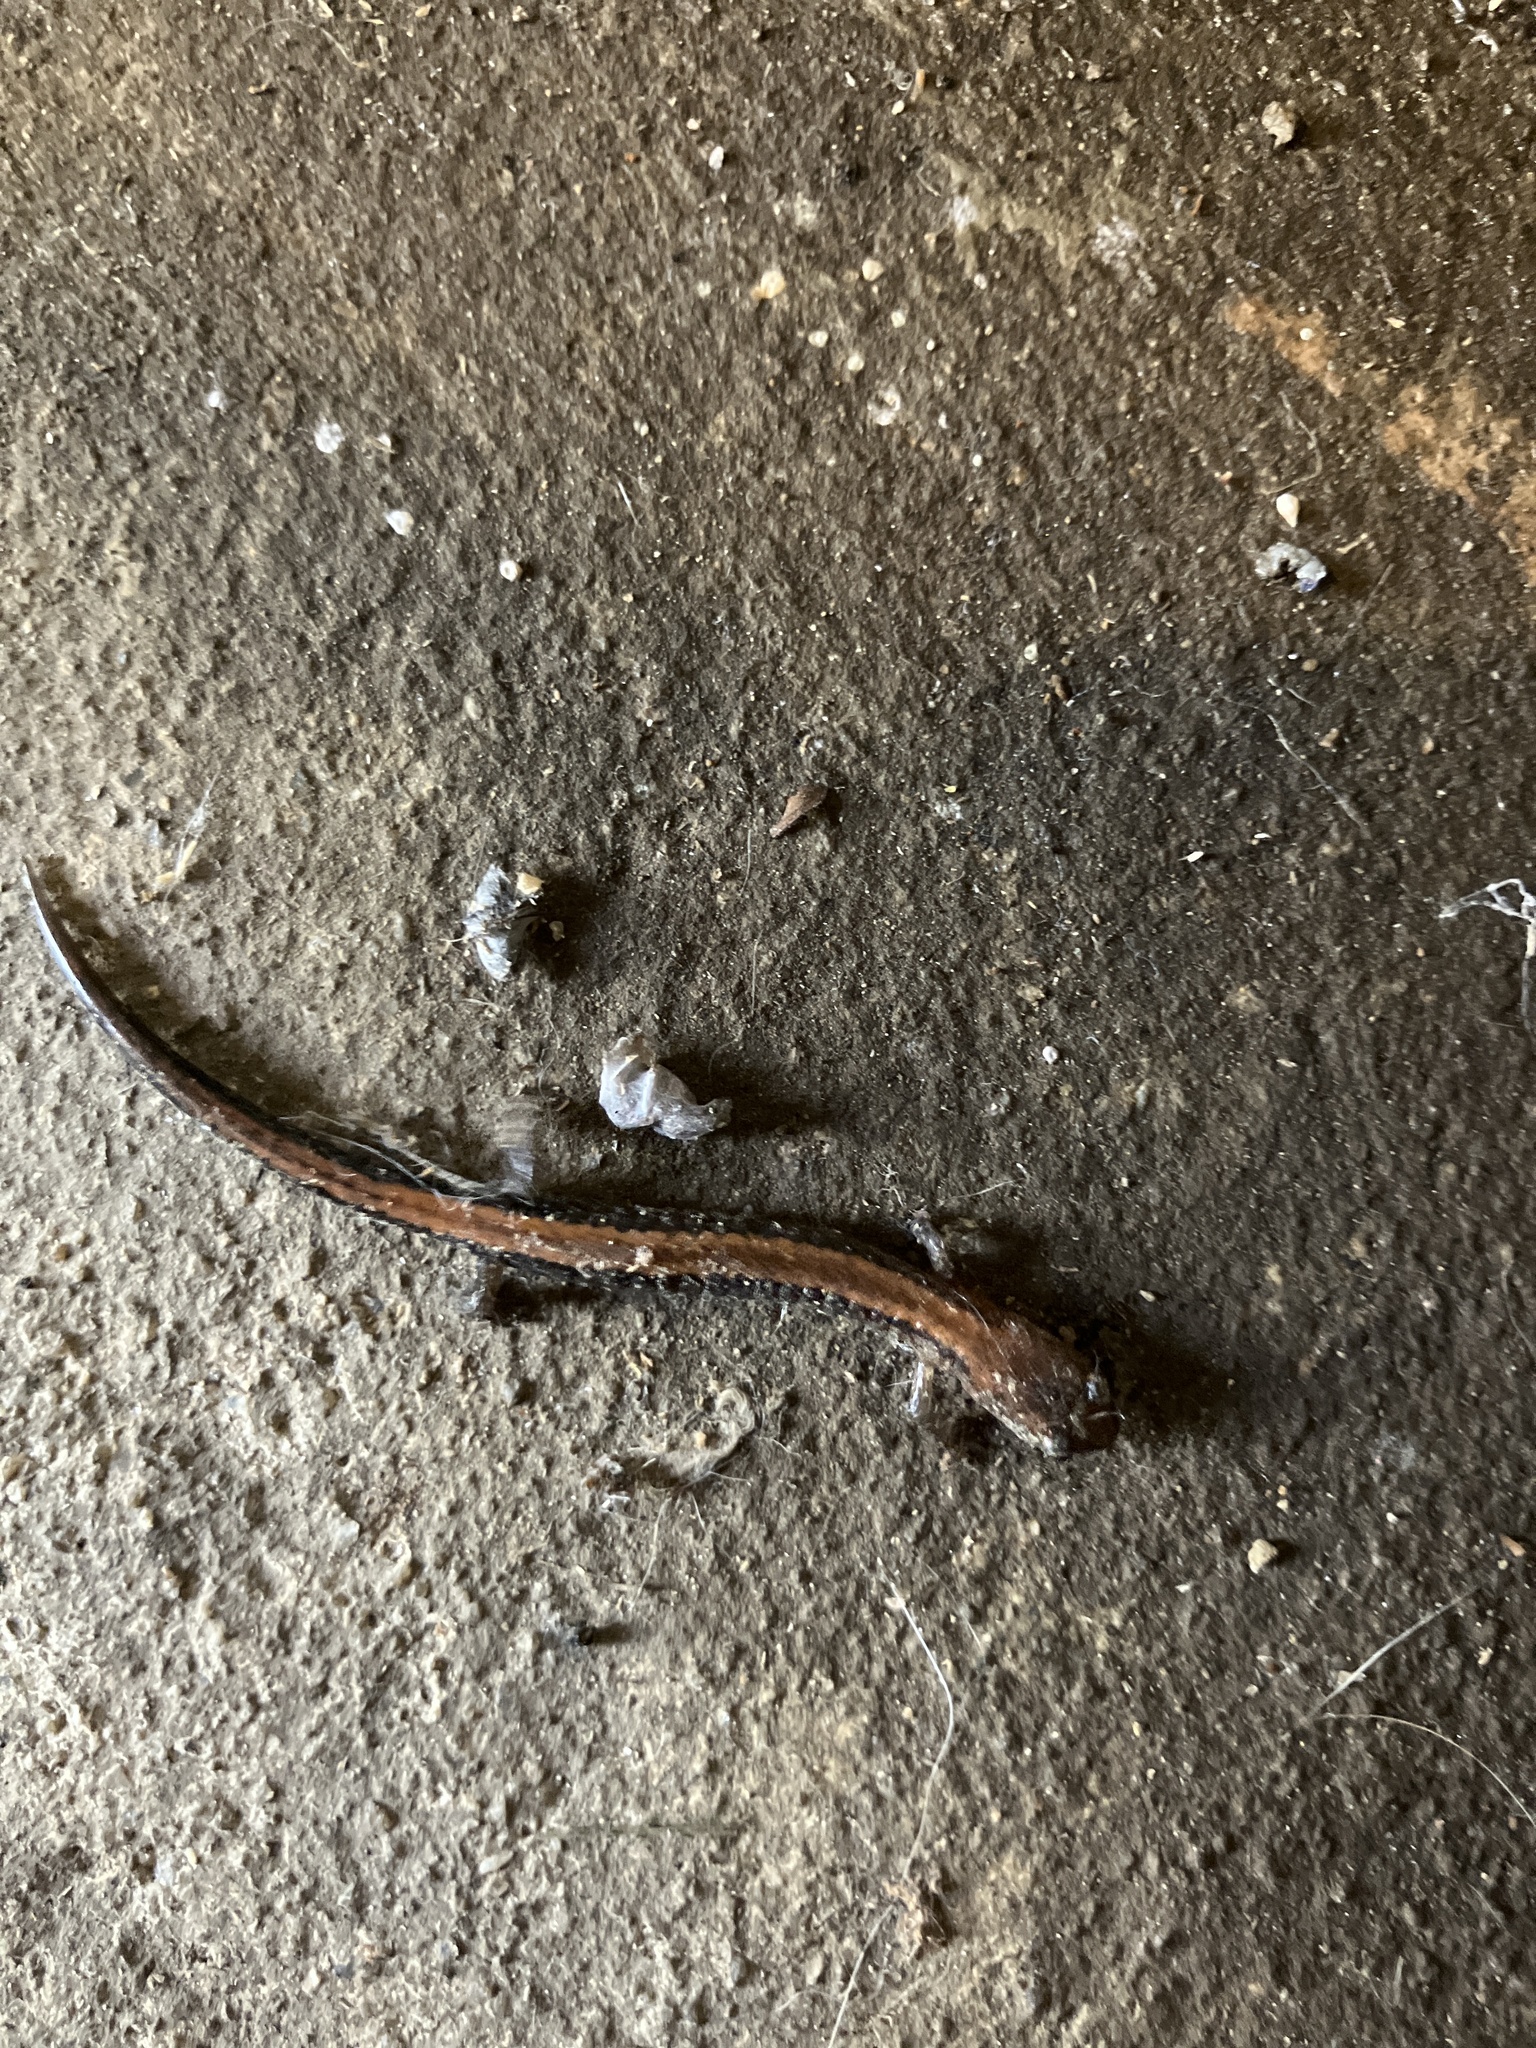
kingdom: Animalia
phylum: Chordata
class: Amphibia
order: Caudata
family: Plethodontidae
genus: Plethodon
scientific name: Plethodon cinereus
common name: Redback salamander
